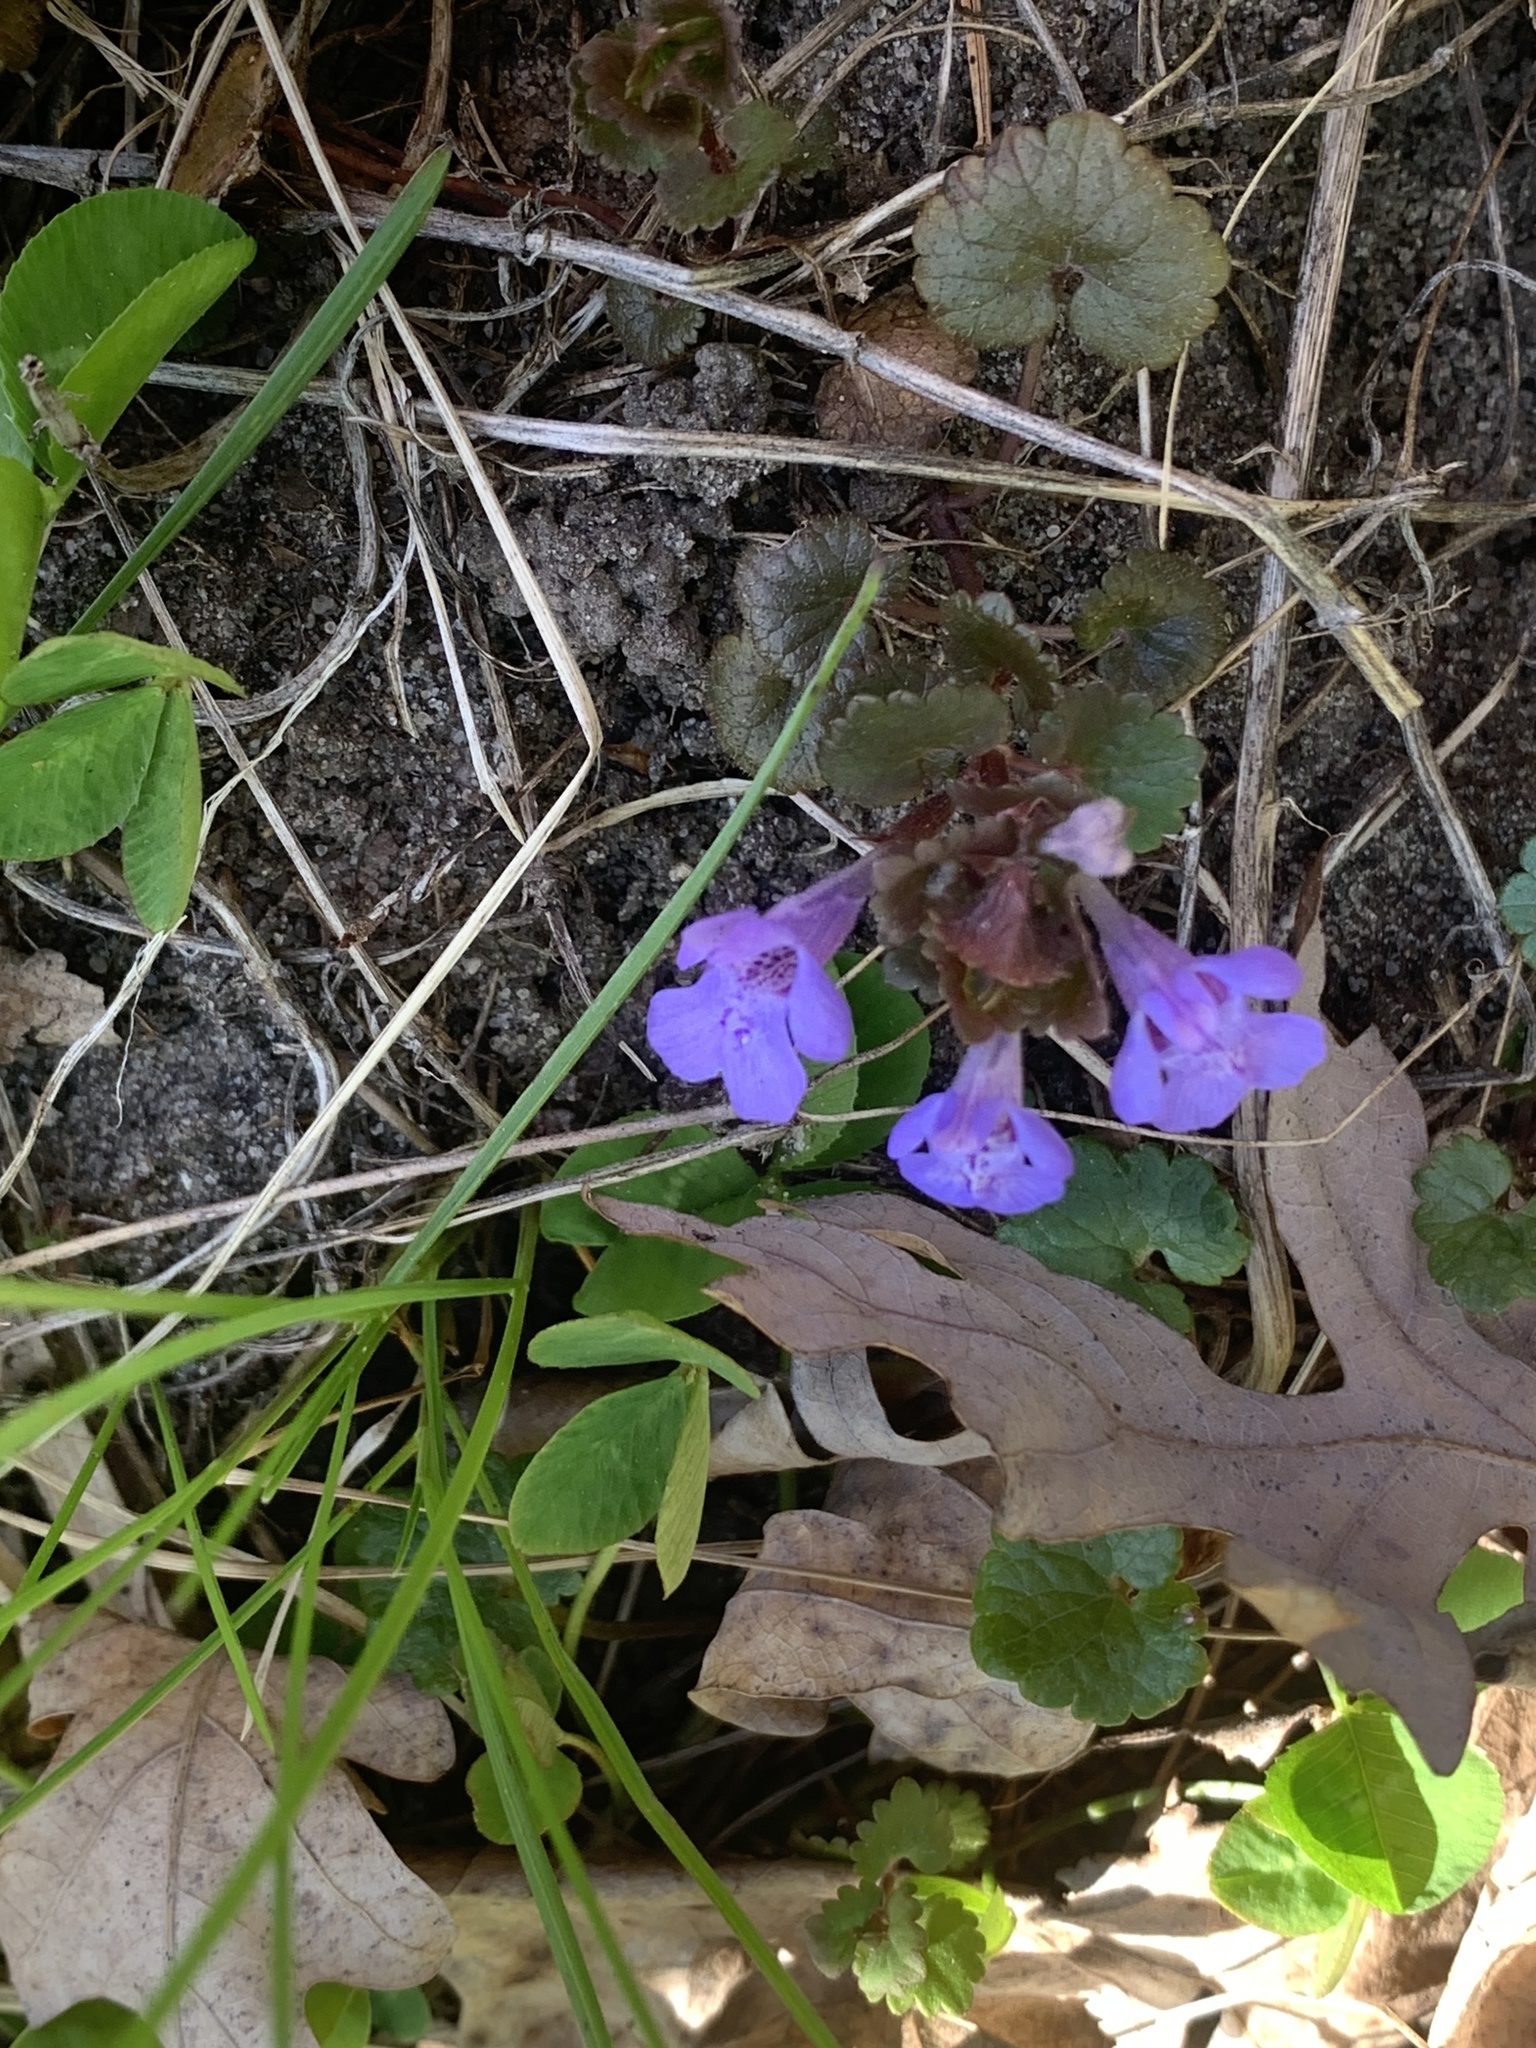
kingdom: Plantae
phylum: Tracheophyta
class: Magnoliopsida
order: Lamiales
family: Lamiaceae
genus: Glechoma
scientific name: Glechoma hederacea
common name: Ground ivy
